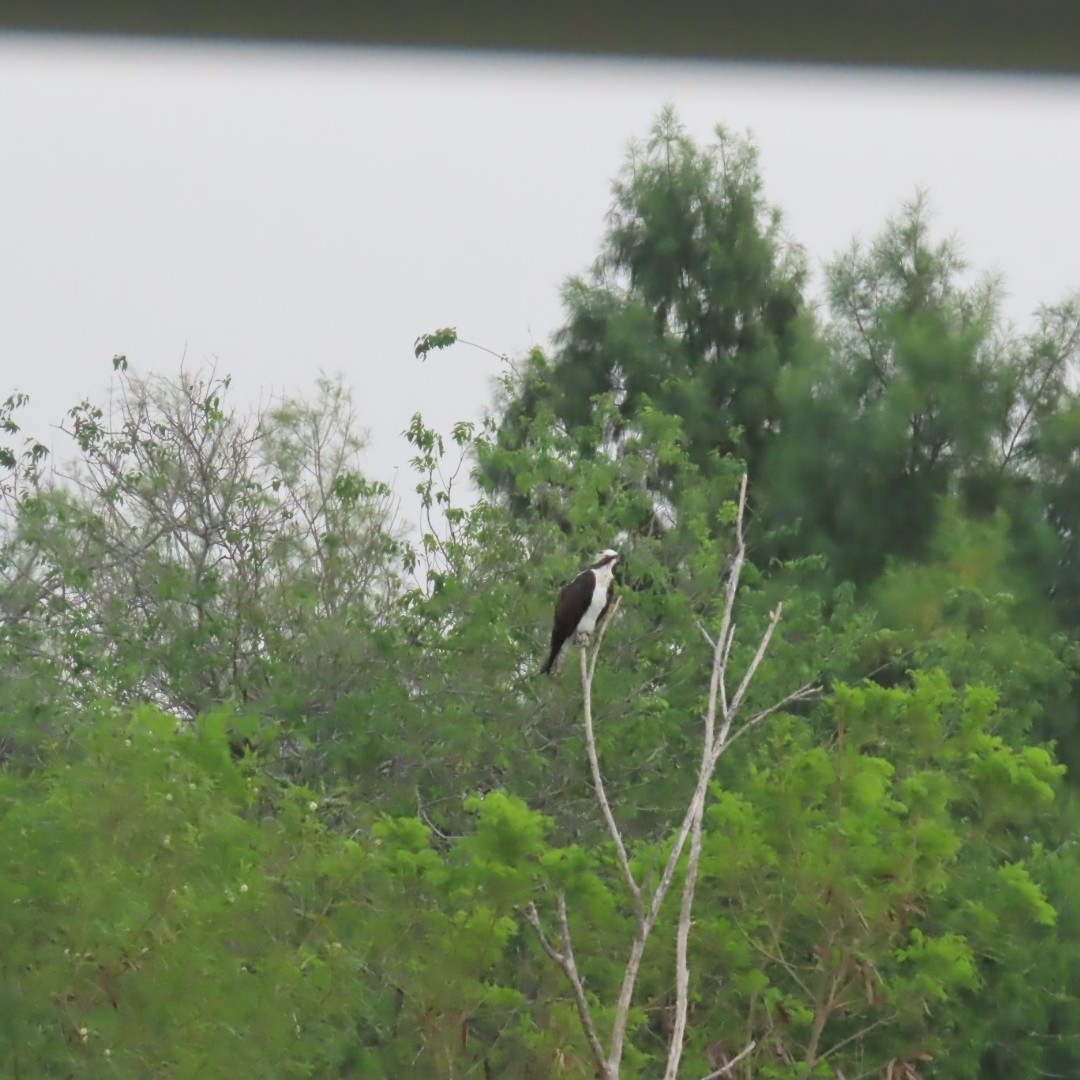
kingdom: Animalia
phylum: Chordata
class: Aves
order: Accipitriformes
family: Pandionidae
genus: Pandion
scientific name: Pandion haliaetus
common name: Osprey
